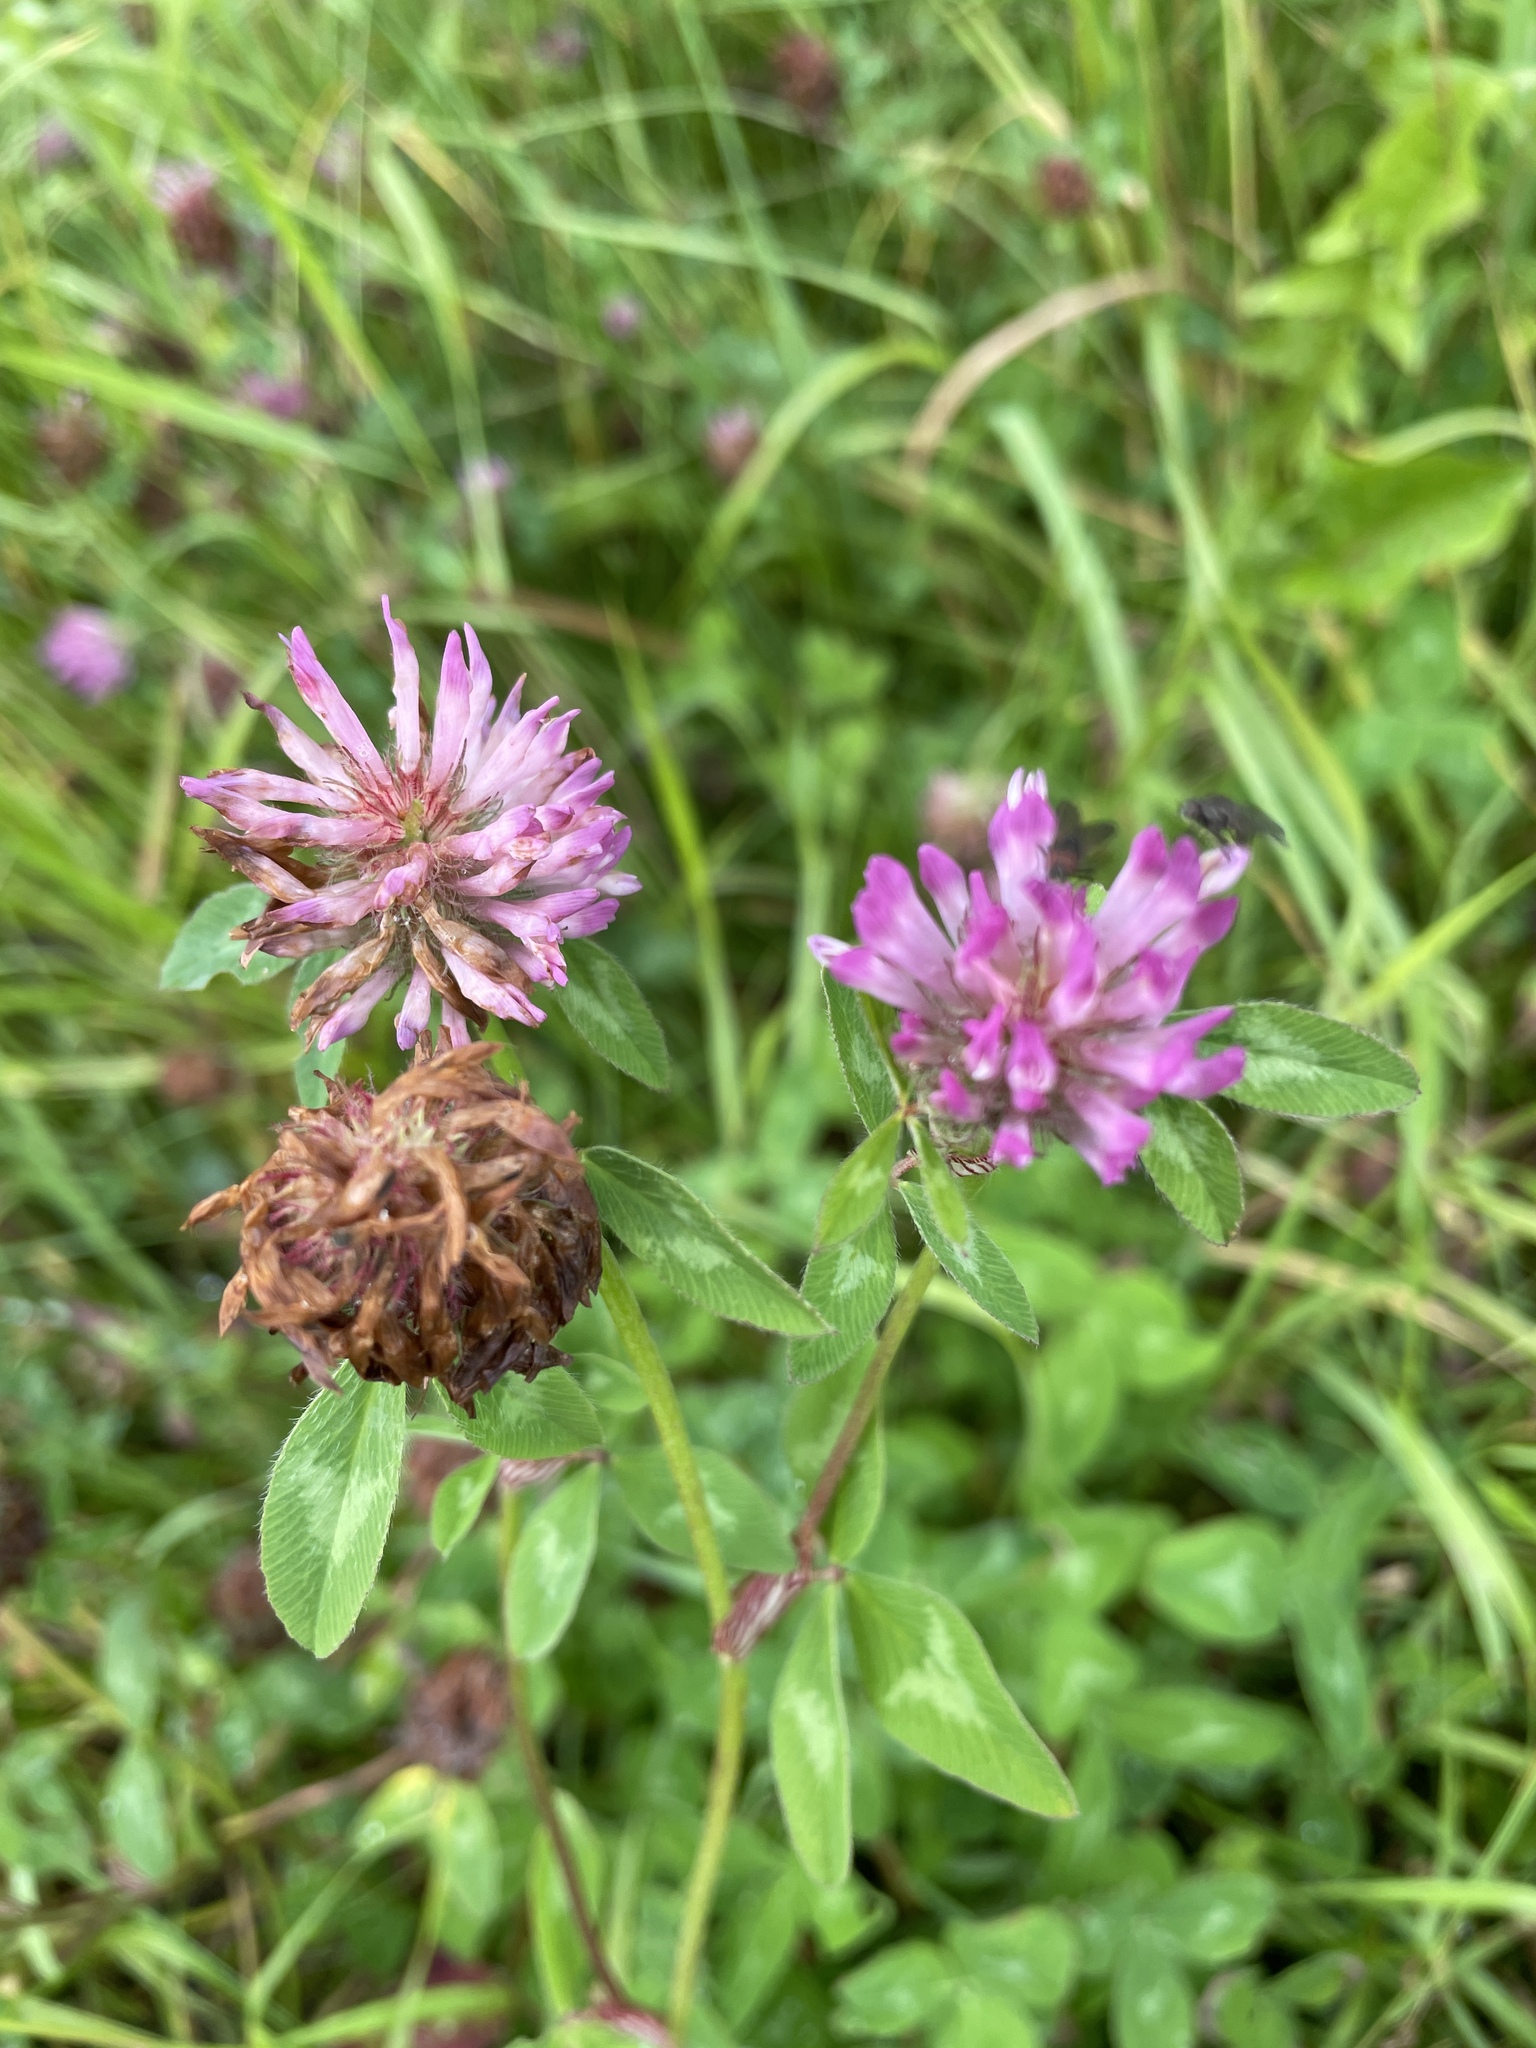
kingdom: Plantae
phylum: Tracheophyta
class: Magnoliopsida
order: Fabales
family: Fabaceae
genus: Trifolium
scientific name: Trifolium pratense
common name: Red clover
